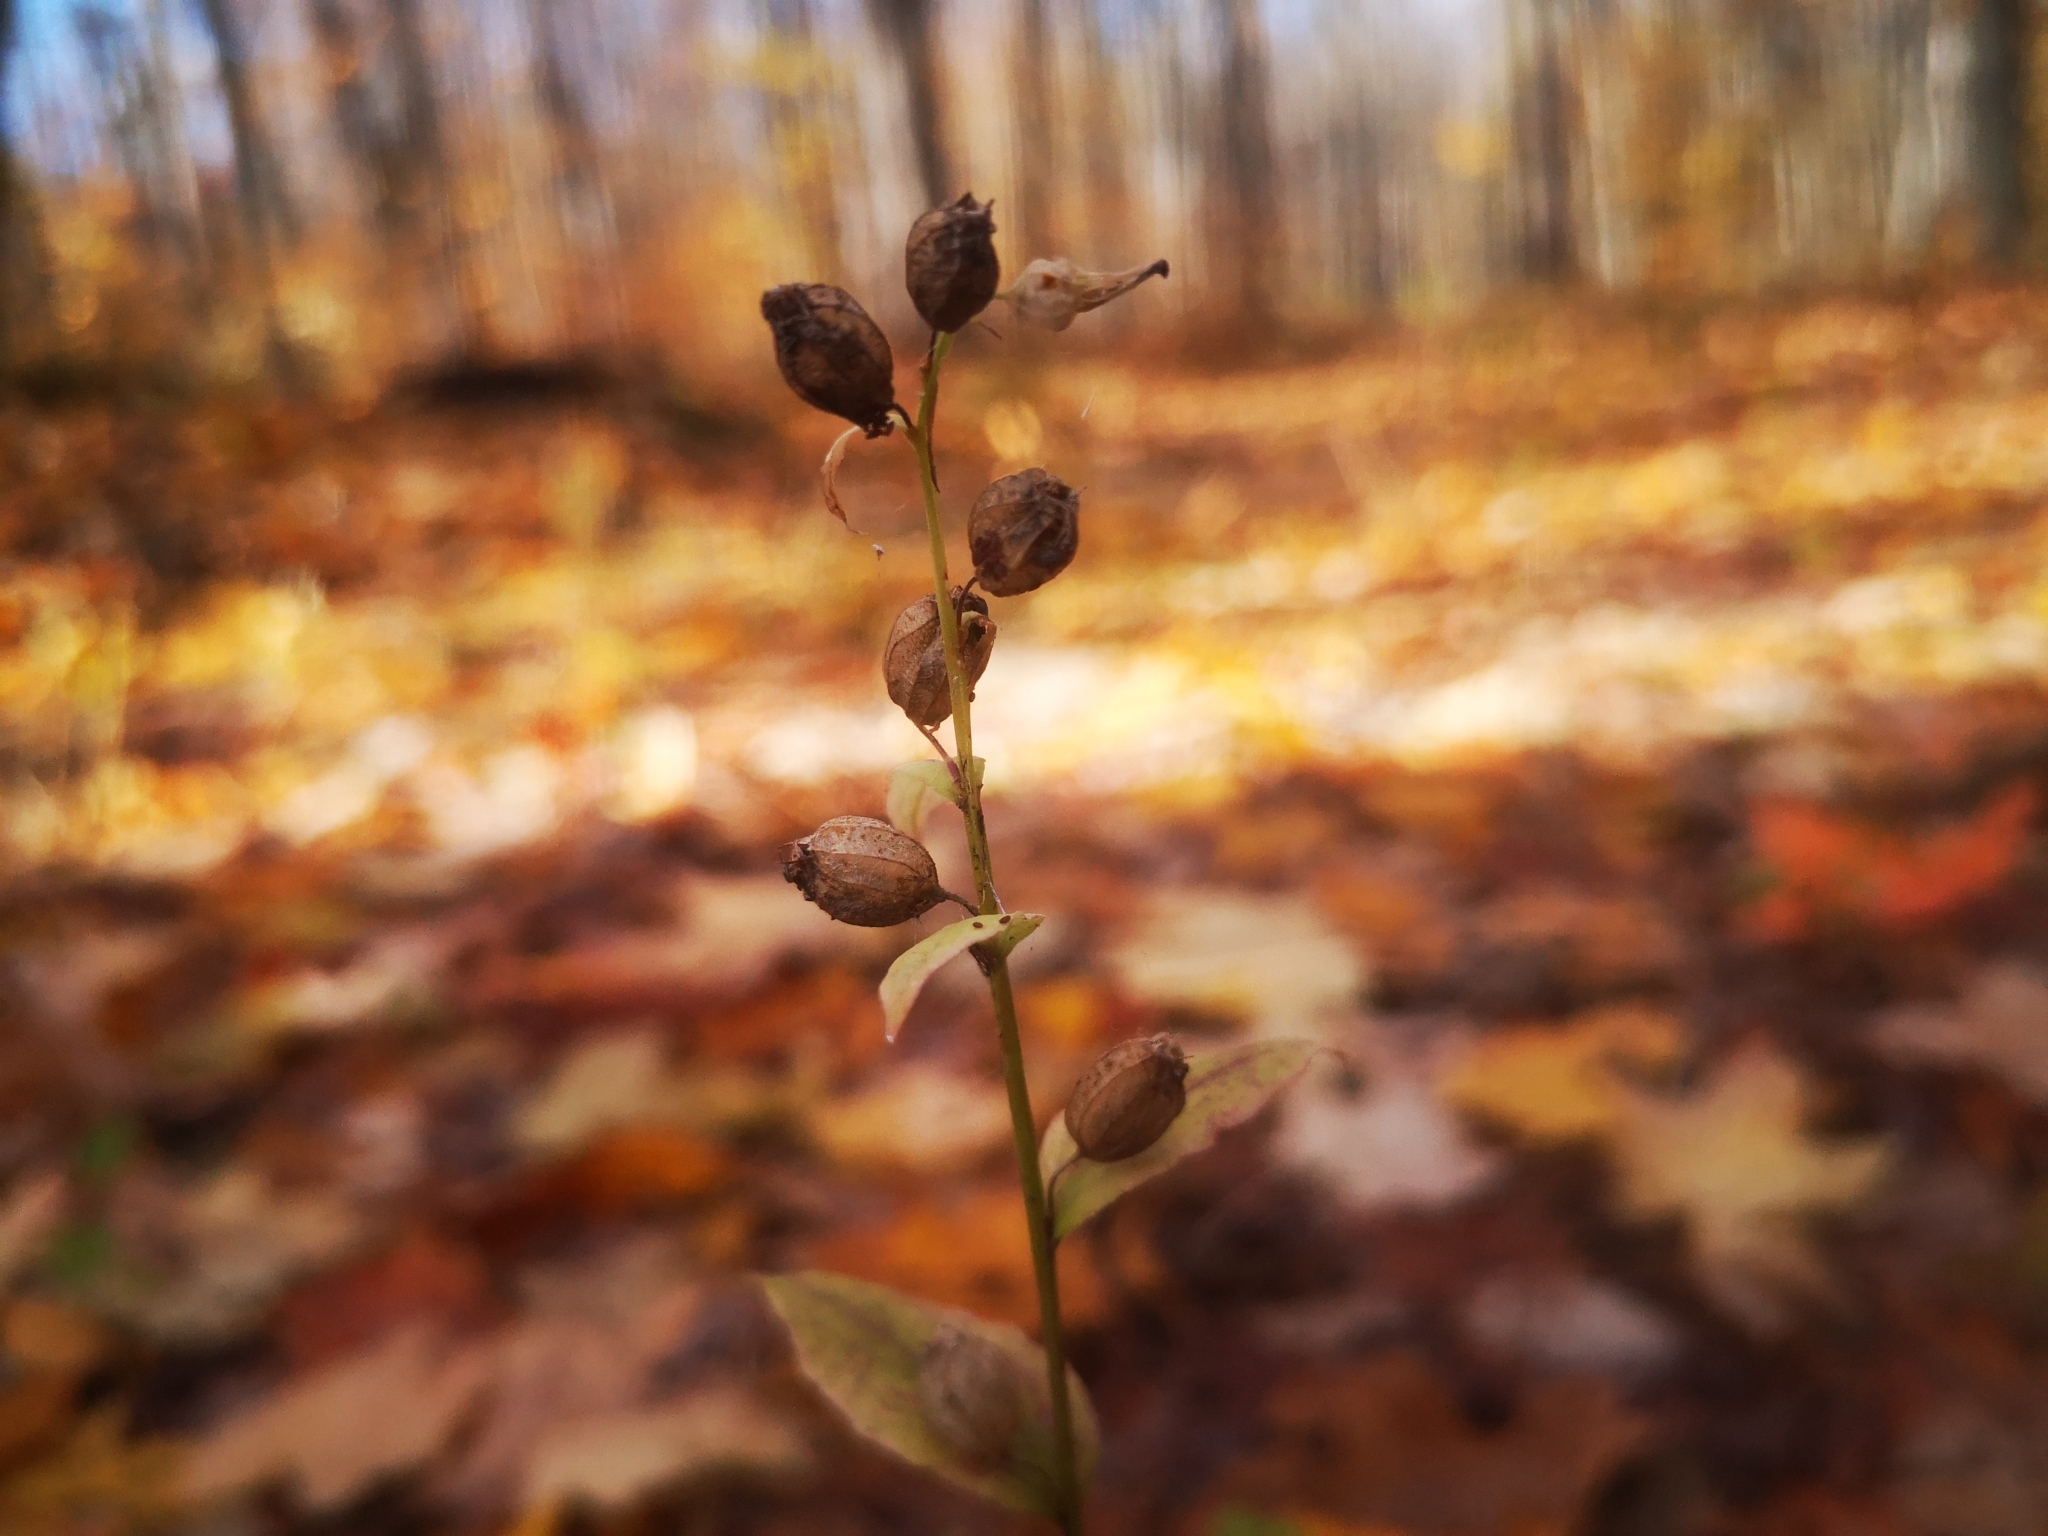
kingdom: Plantae
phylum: Tracheophyta
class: Magnoliopsida
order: Asterales
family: Campanulaceae
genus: Lobelia
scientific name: Lobelia inflata
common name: Indian tobacco
